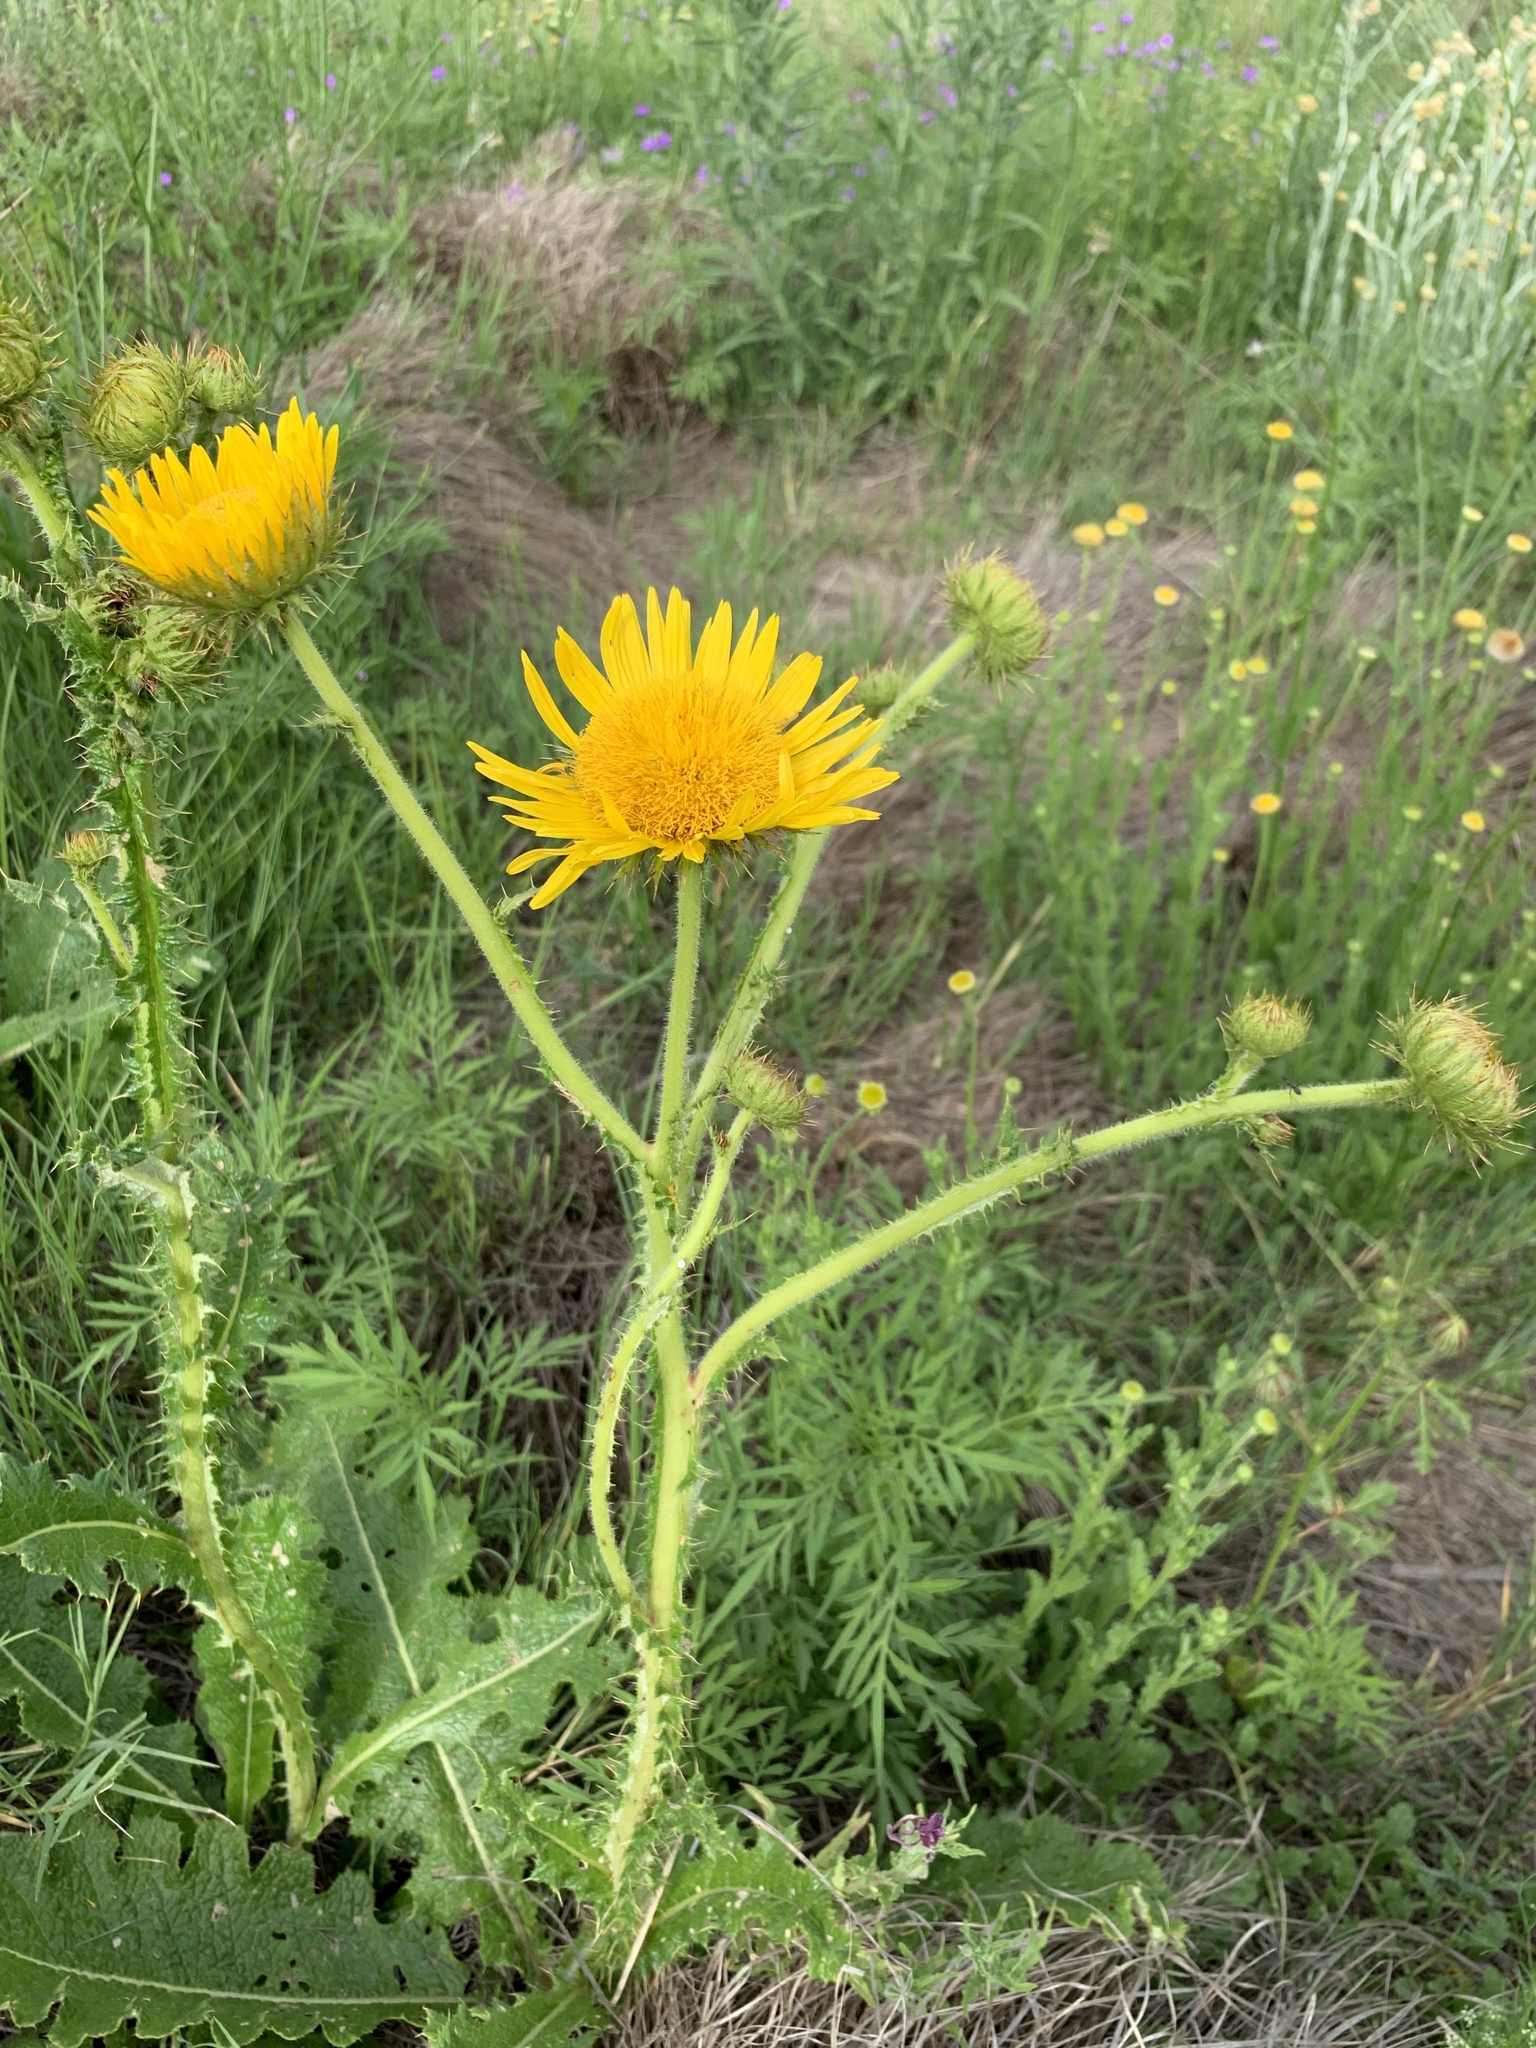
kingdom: Plantae
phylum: Tracheophyta
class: Magnoliopsida
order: Asterales
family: Asteraceae
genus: Berkheya
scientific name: Berkheya radula
